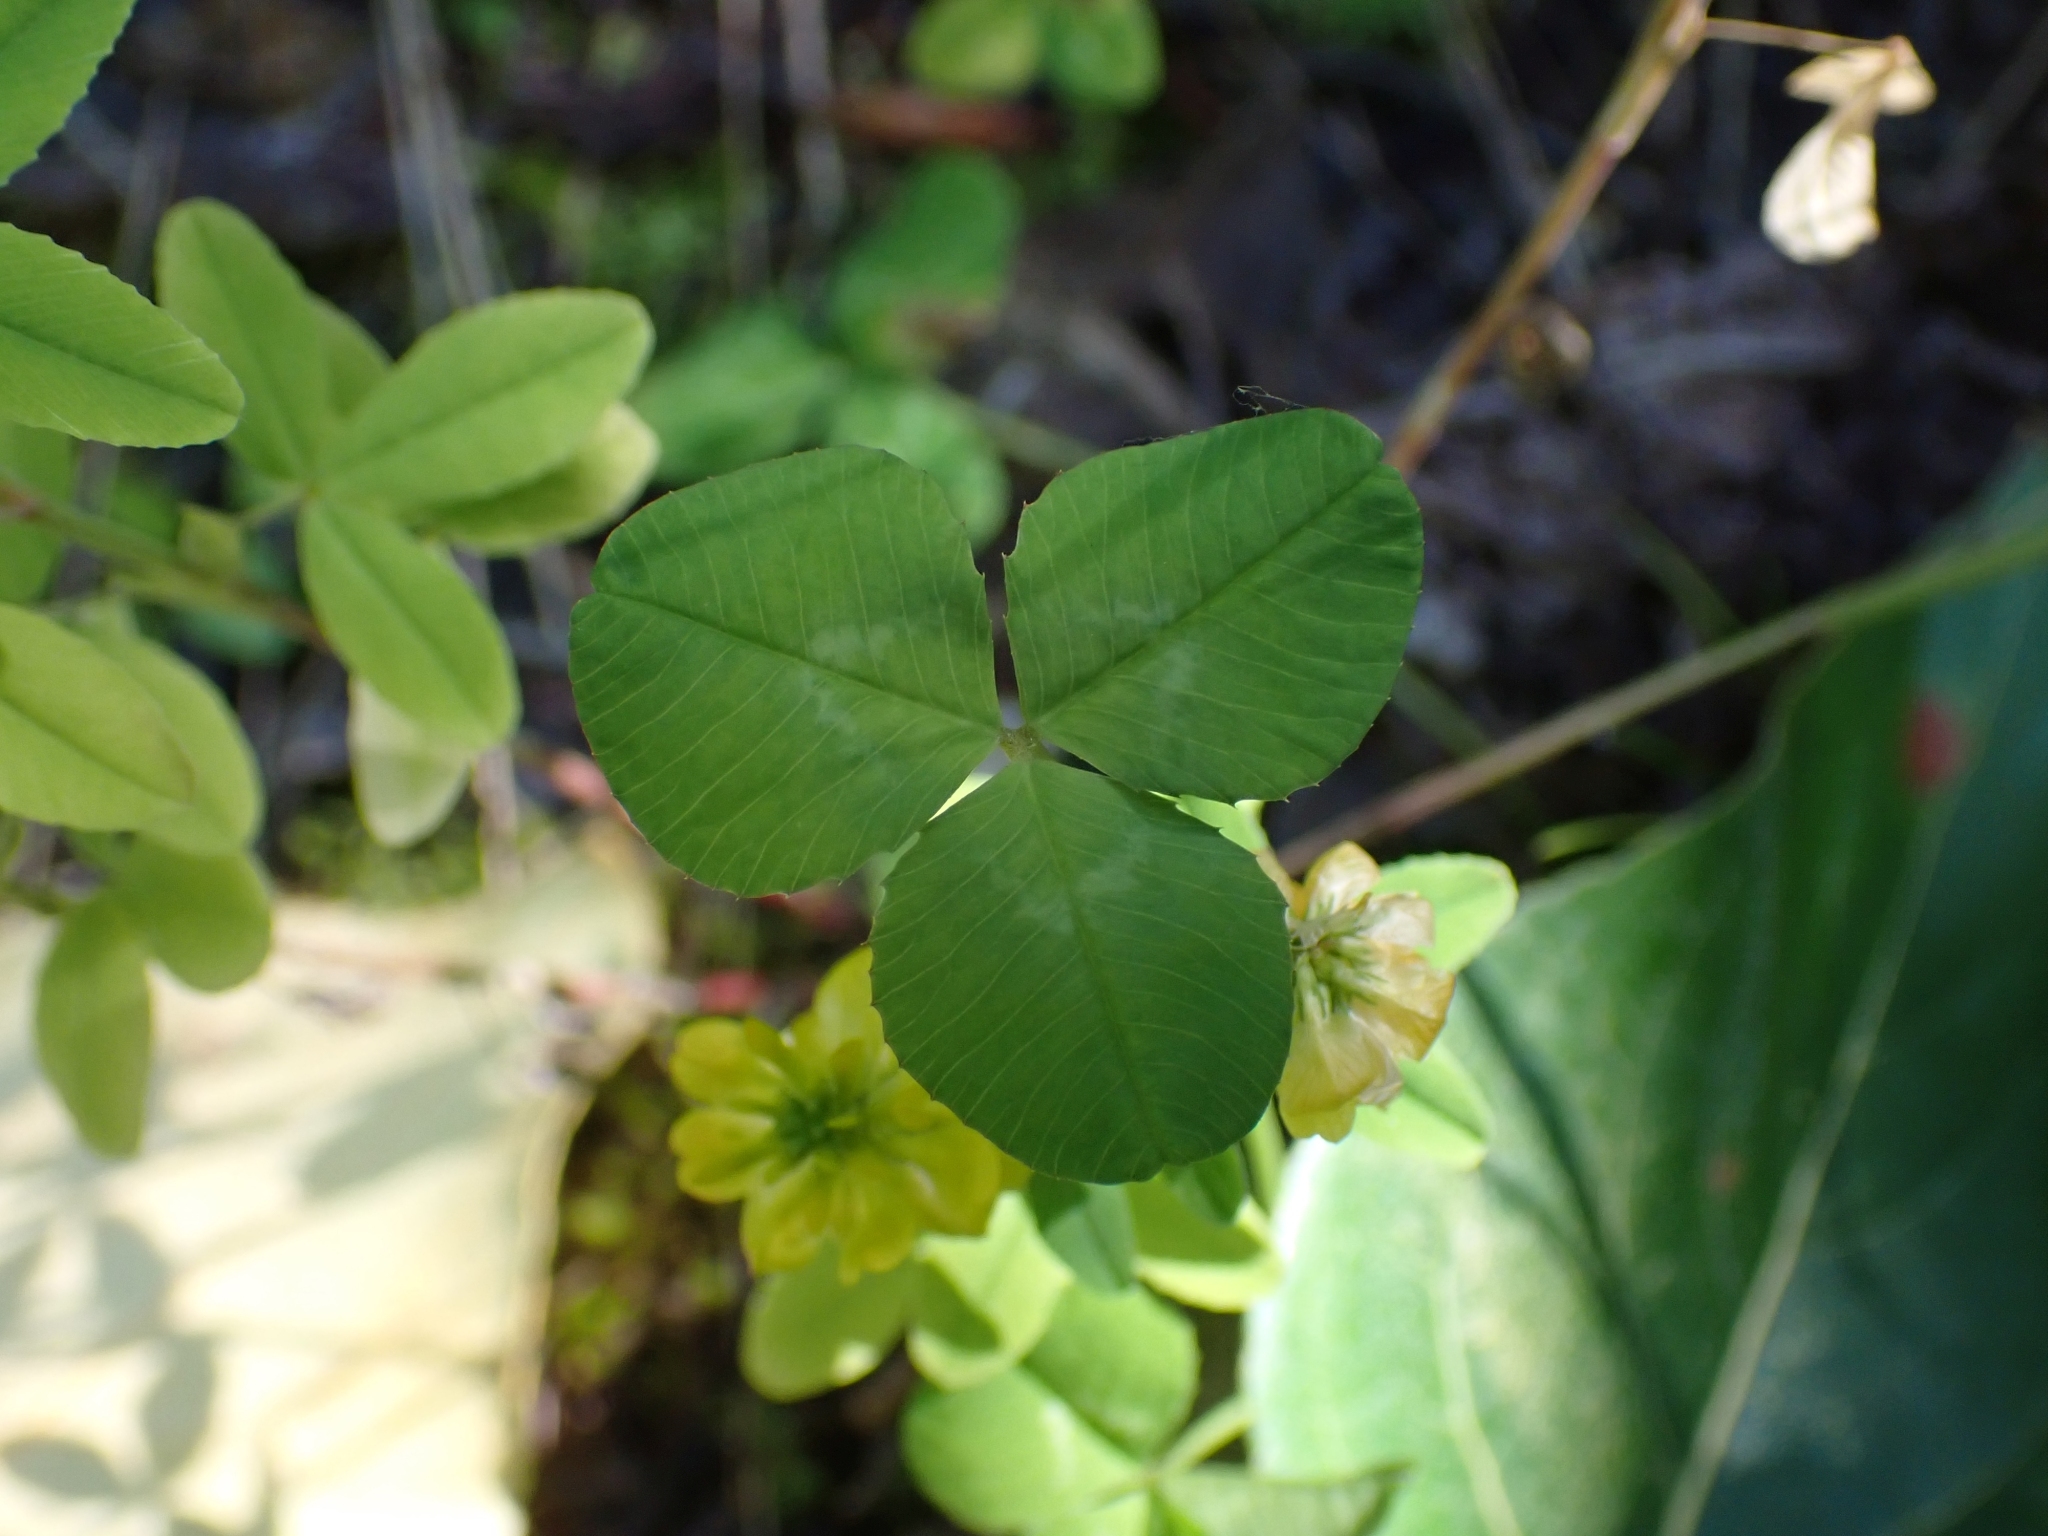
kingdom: Plantae
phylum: Tracheophyta
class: Magnoliopsida
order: Fabales
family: Fabaceae
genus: Trifolium
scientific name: Trifolium aureum
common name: Golden clover
